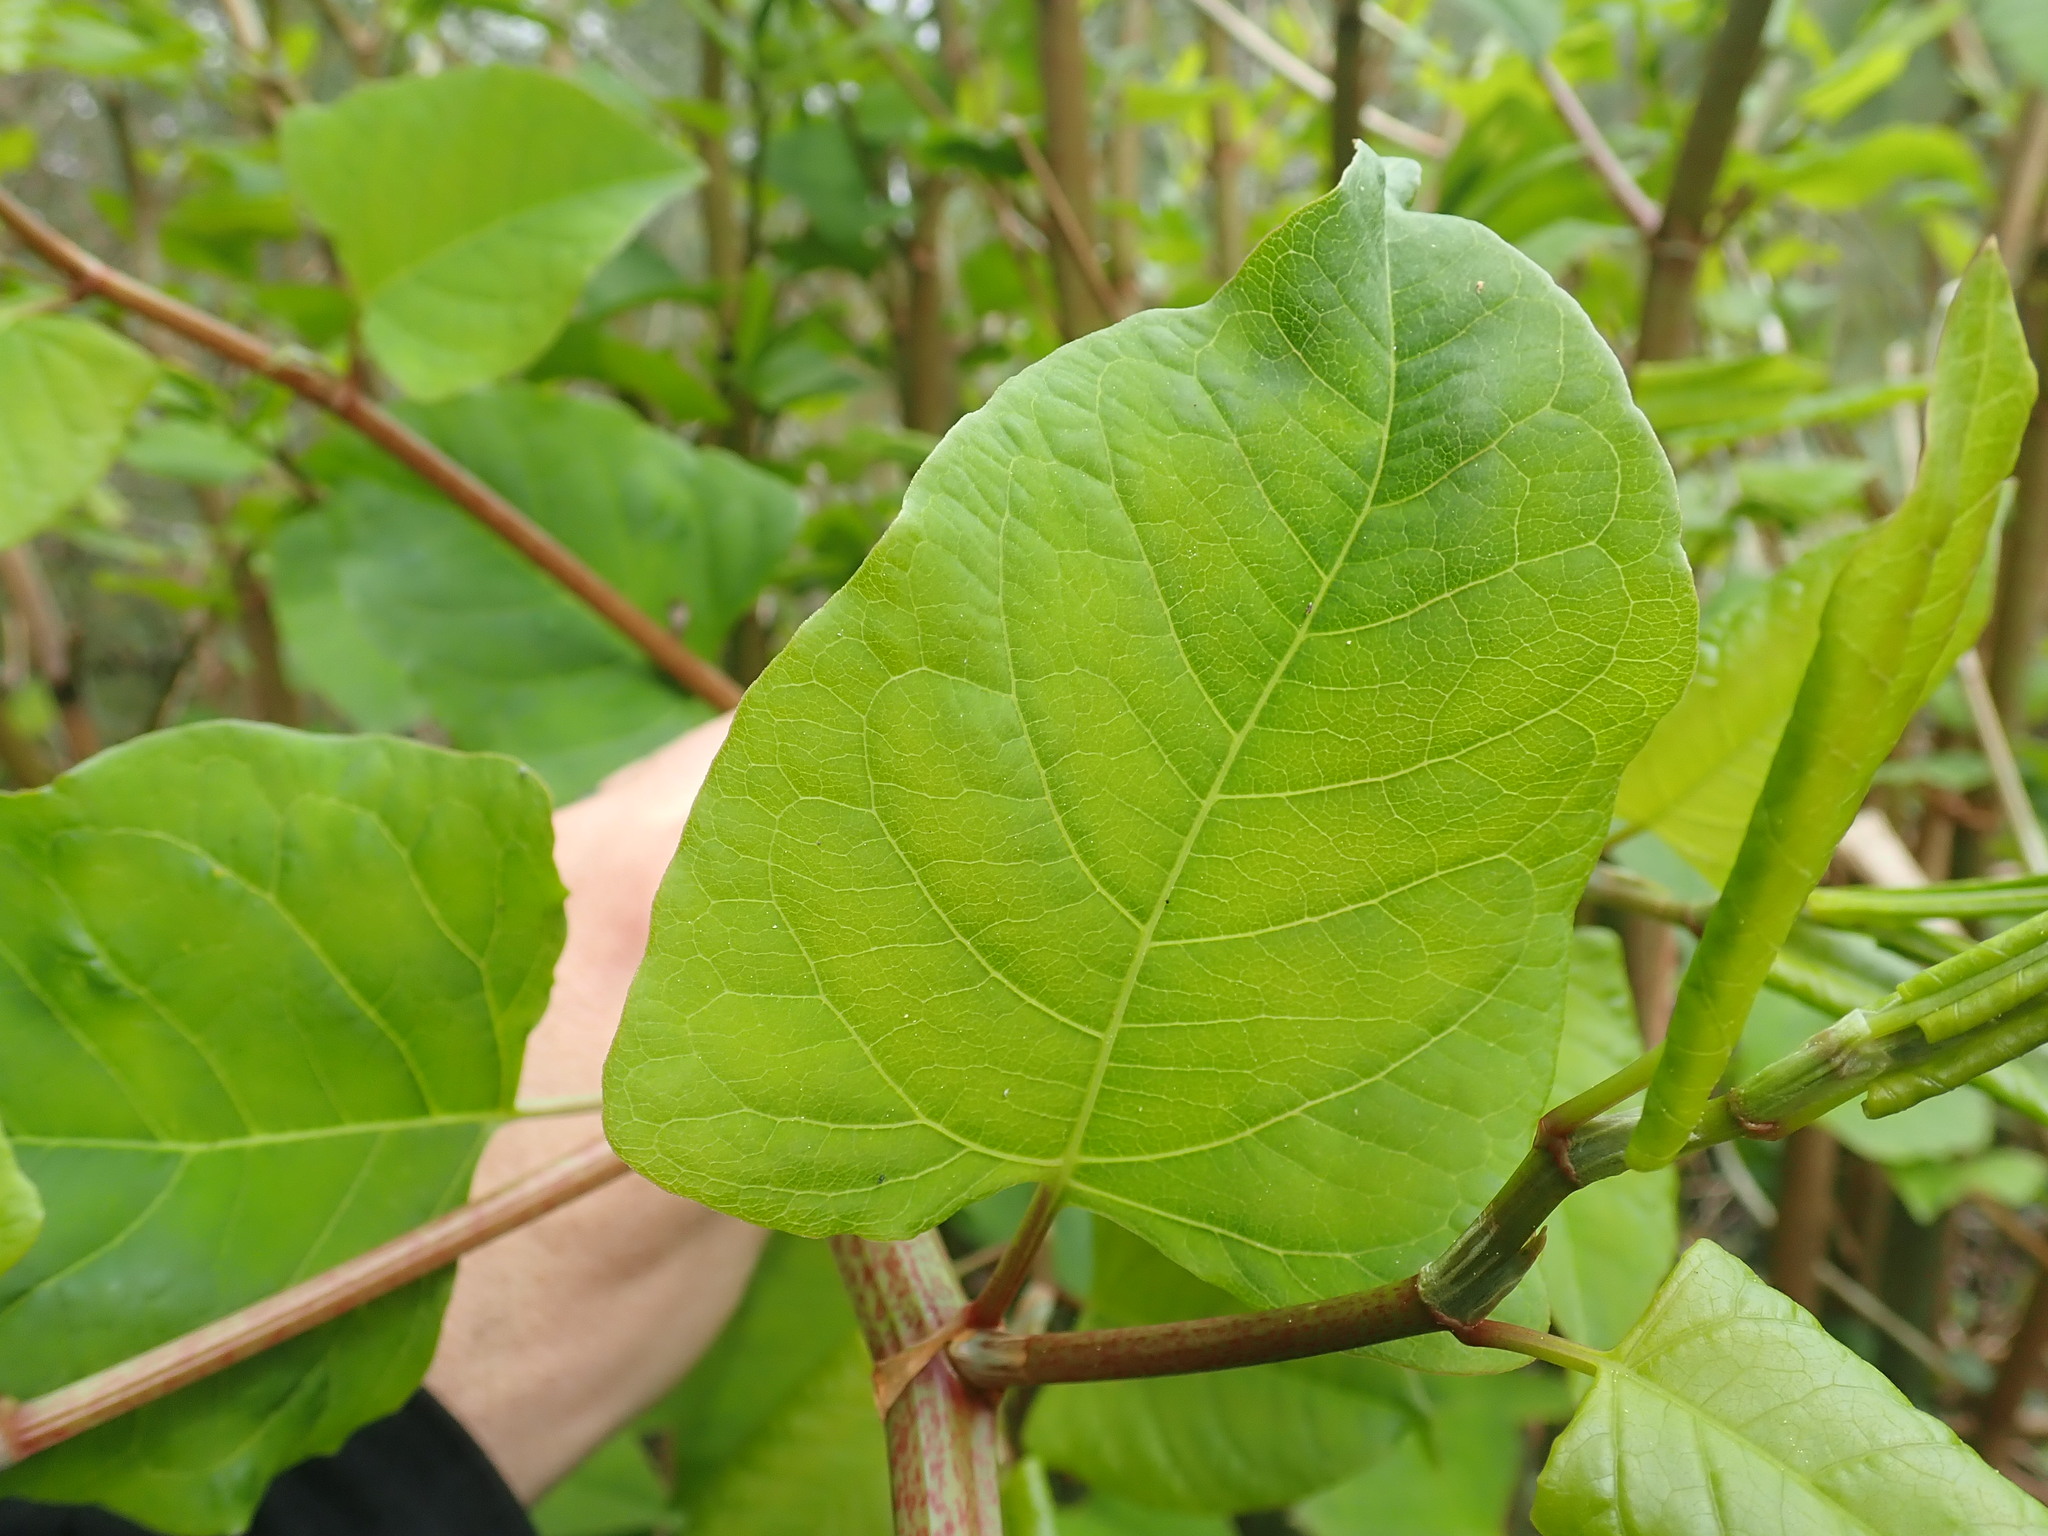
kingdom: Plantae
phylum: Tracheophyta
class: Magnoliopsida
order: Caryophyllales
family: Polygonaceae
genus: Reynoutria
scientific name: Reynoutria sachalinensis
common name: Giant knotweed
